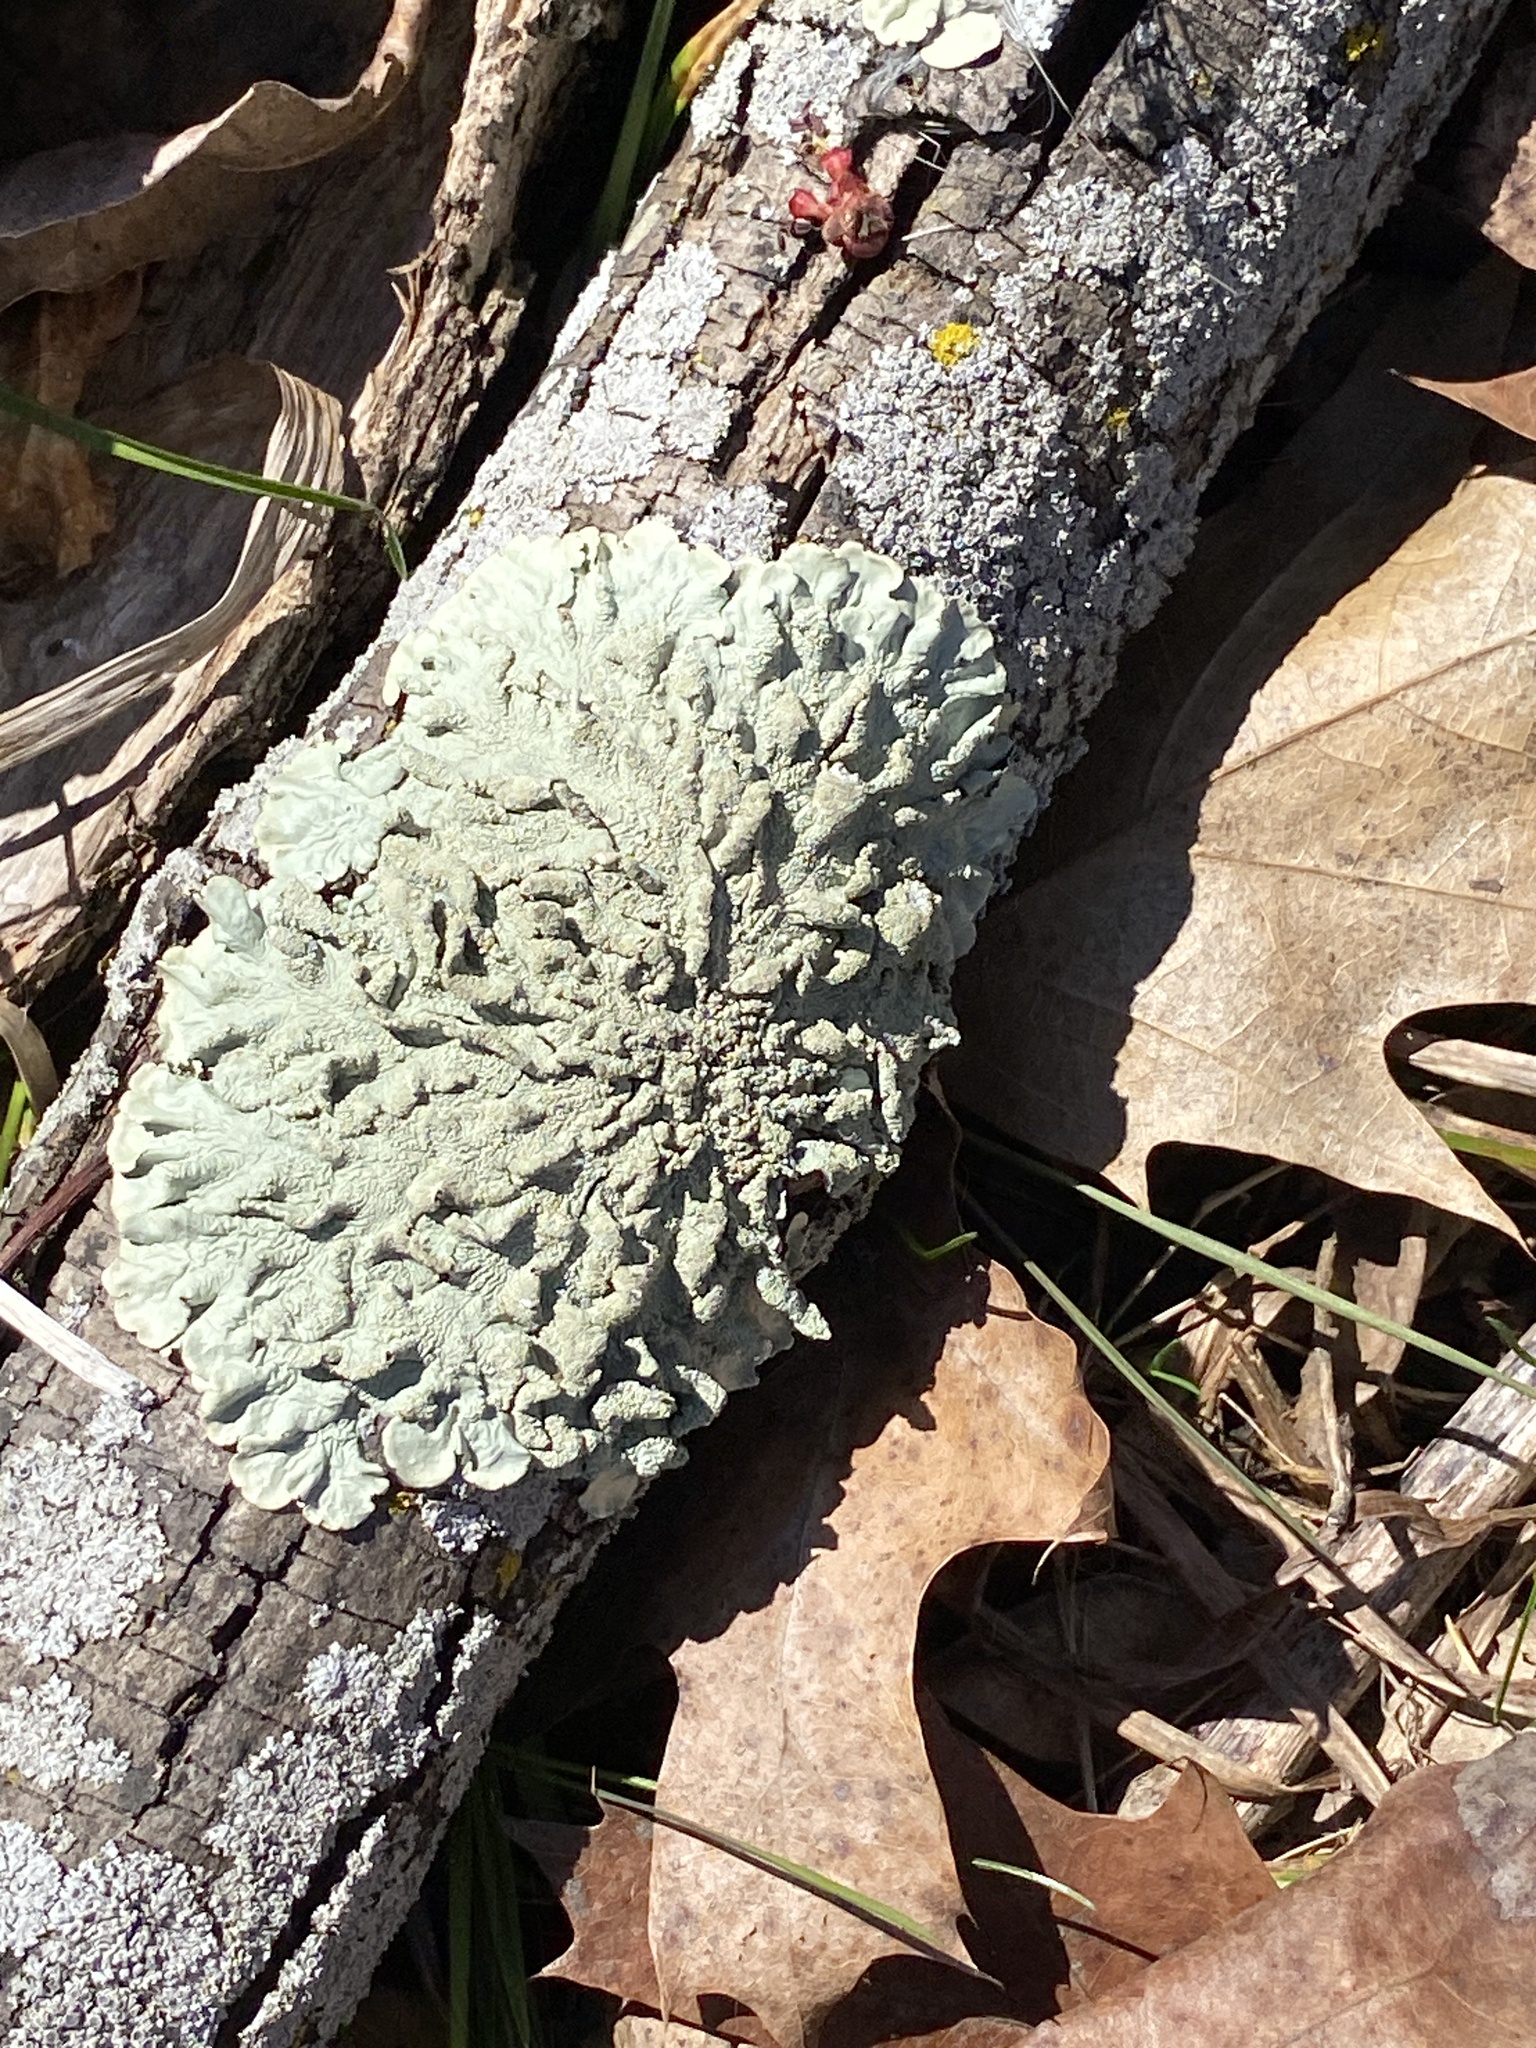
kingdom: Fungi
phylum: Ascomycota
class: Lecanoromycetes
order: Lecanorales
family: Parmeliaceae
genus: Flavoparmelia
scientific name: Flavoparmelia caperata
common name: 40-mile per hour lichen
